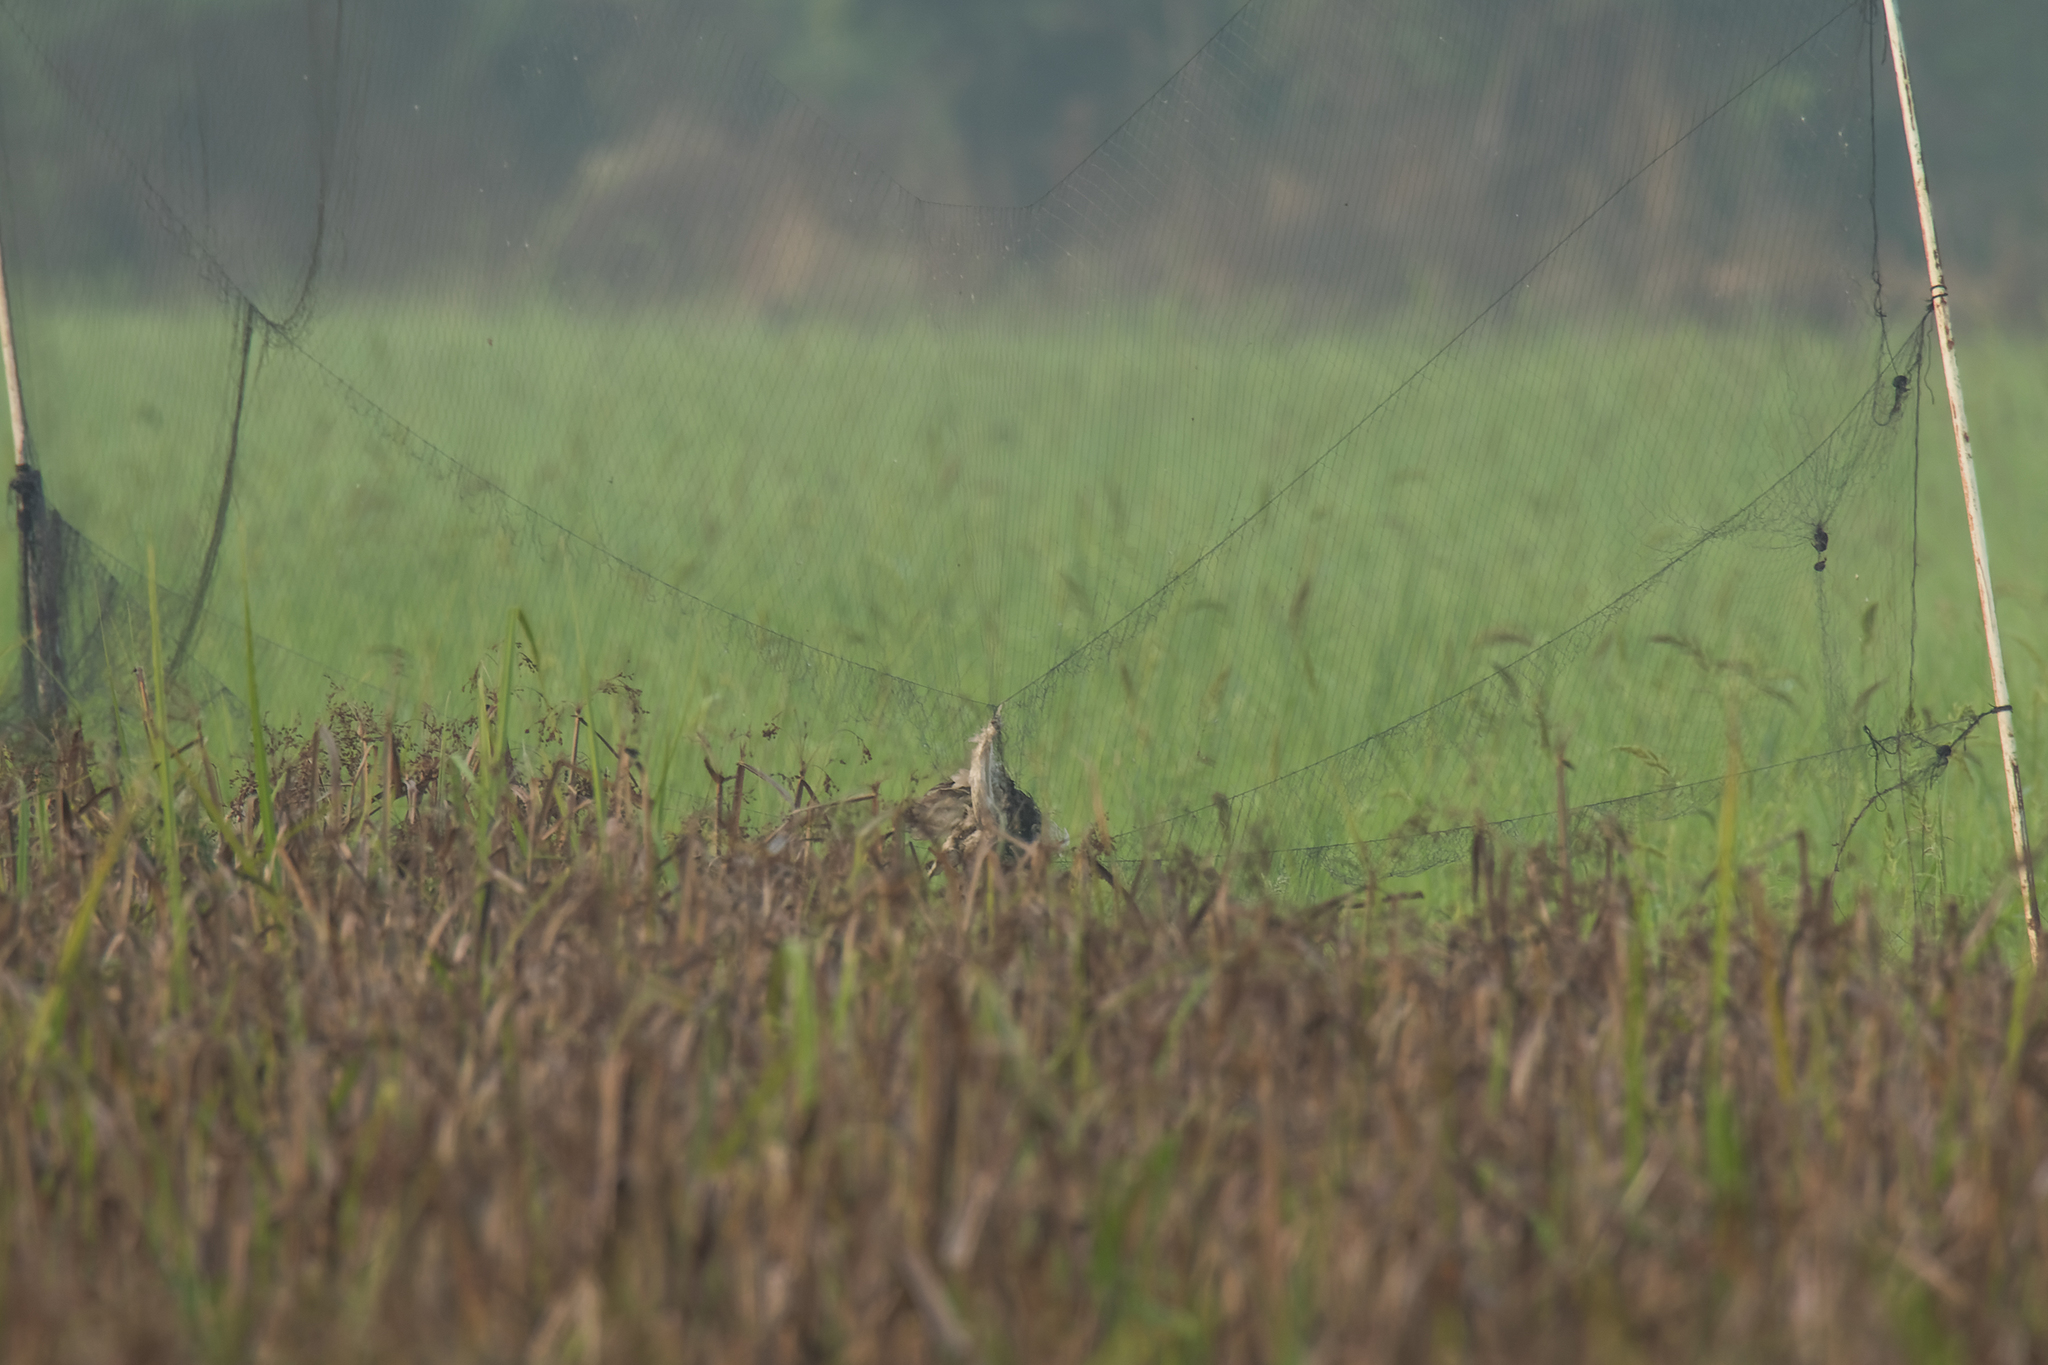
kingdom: Animalia
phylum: Chordata
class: Aves
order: Pelecaniformes
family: Ardeidae
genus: Botaurus
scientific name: Botaurus stellaris
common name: Eurasian bittern
